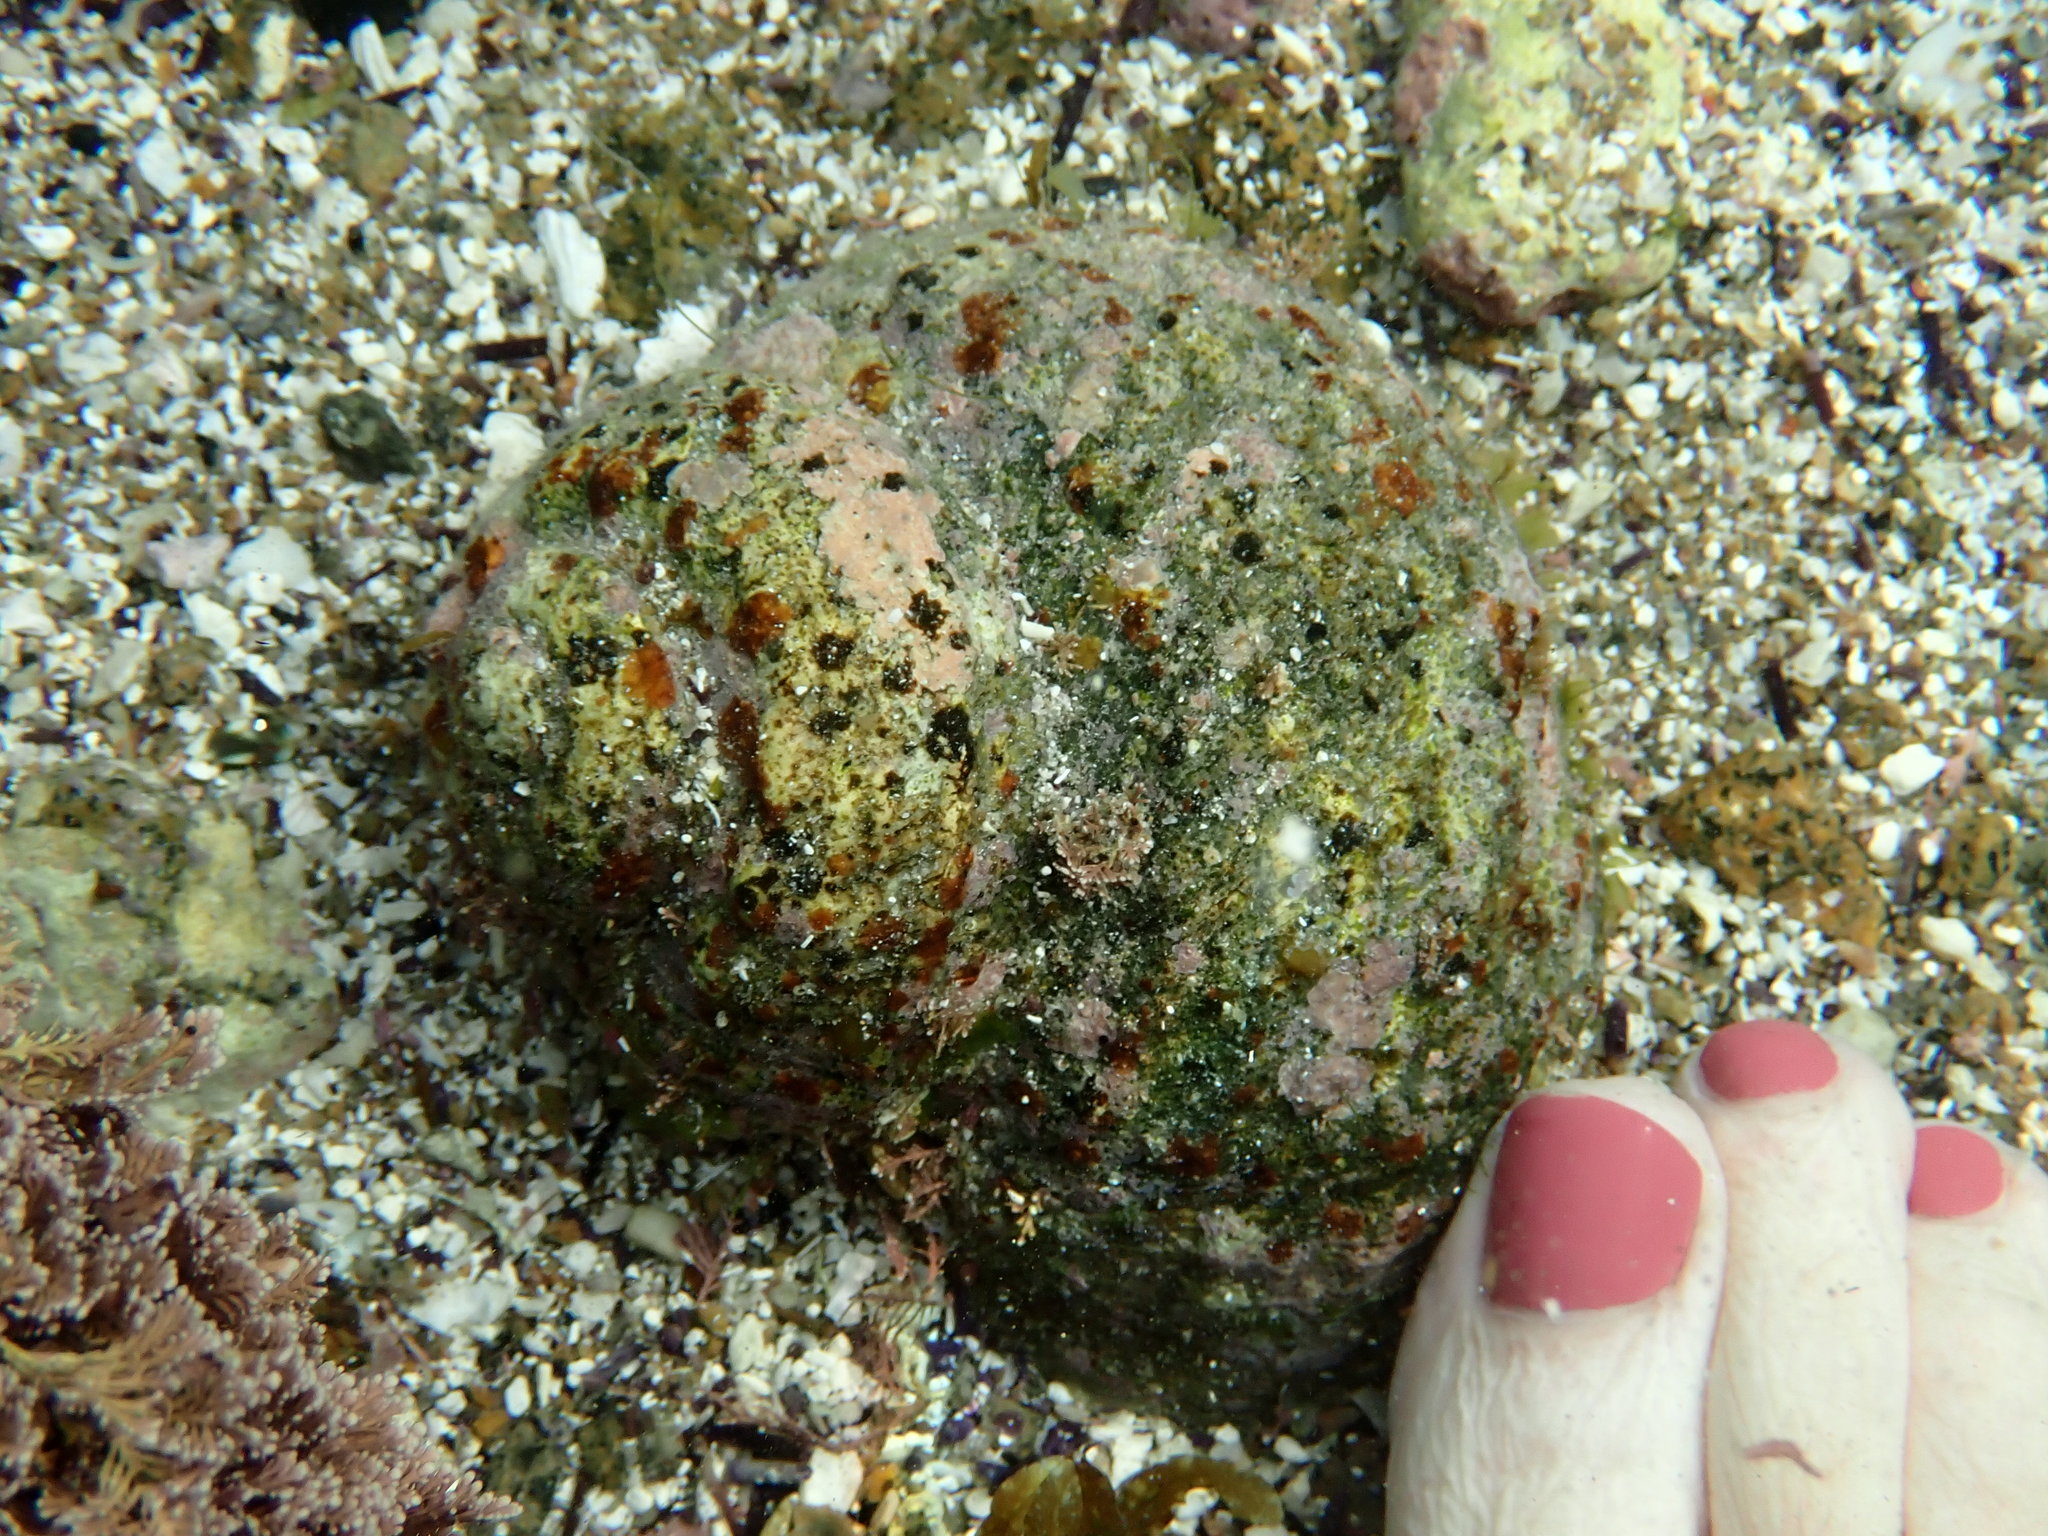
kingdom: Animalia
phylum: Mollusca
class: Gastropoda
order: Trochida
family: Turbinidae
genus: Lunella
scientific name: Lunella torquata
